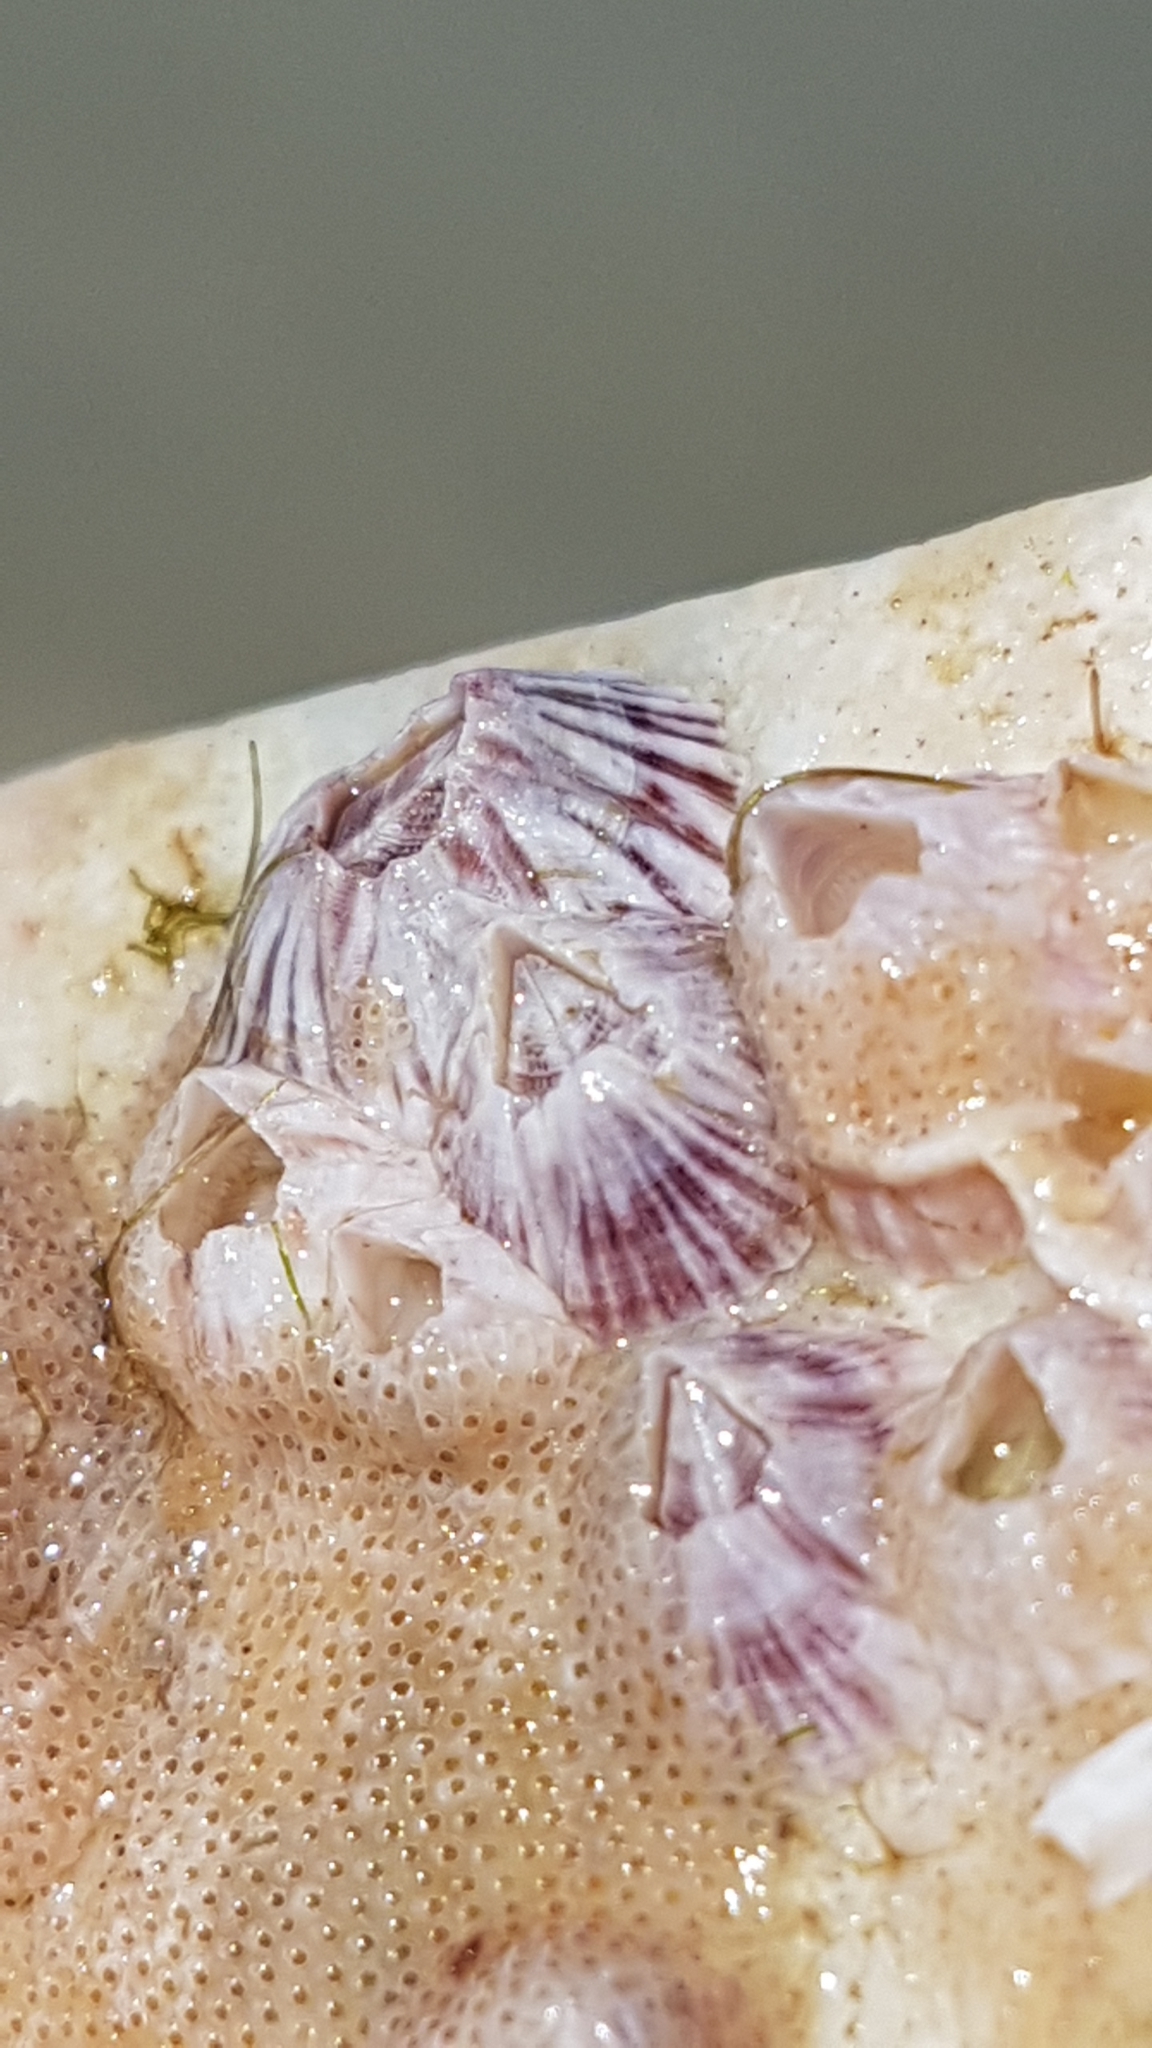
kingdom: Animalia
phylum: Arthropoda
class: Maxillopoda
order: Sessilia
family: Balanidae
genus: Balanus
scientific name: Balanus trigonus
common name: Triangle barnacle
